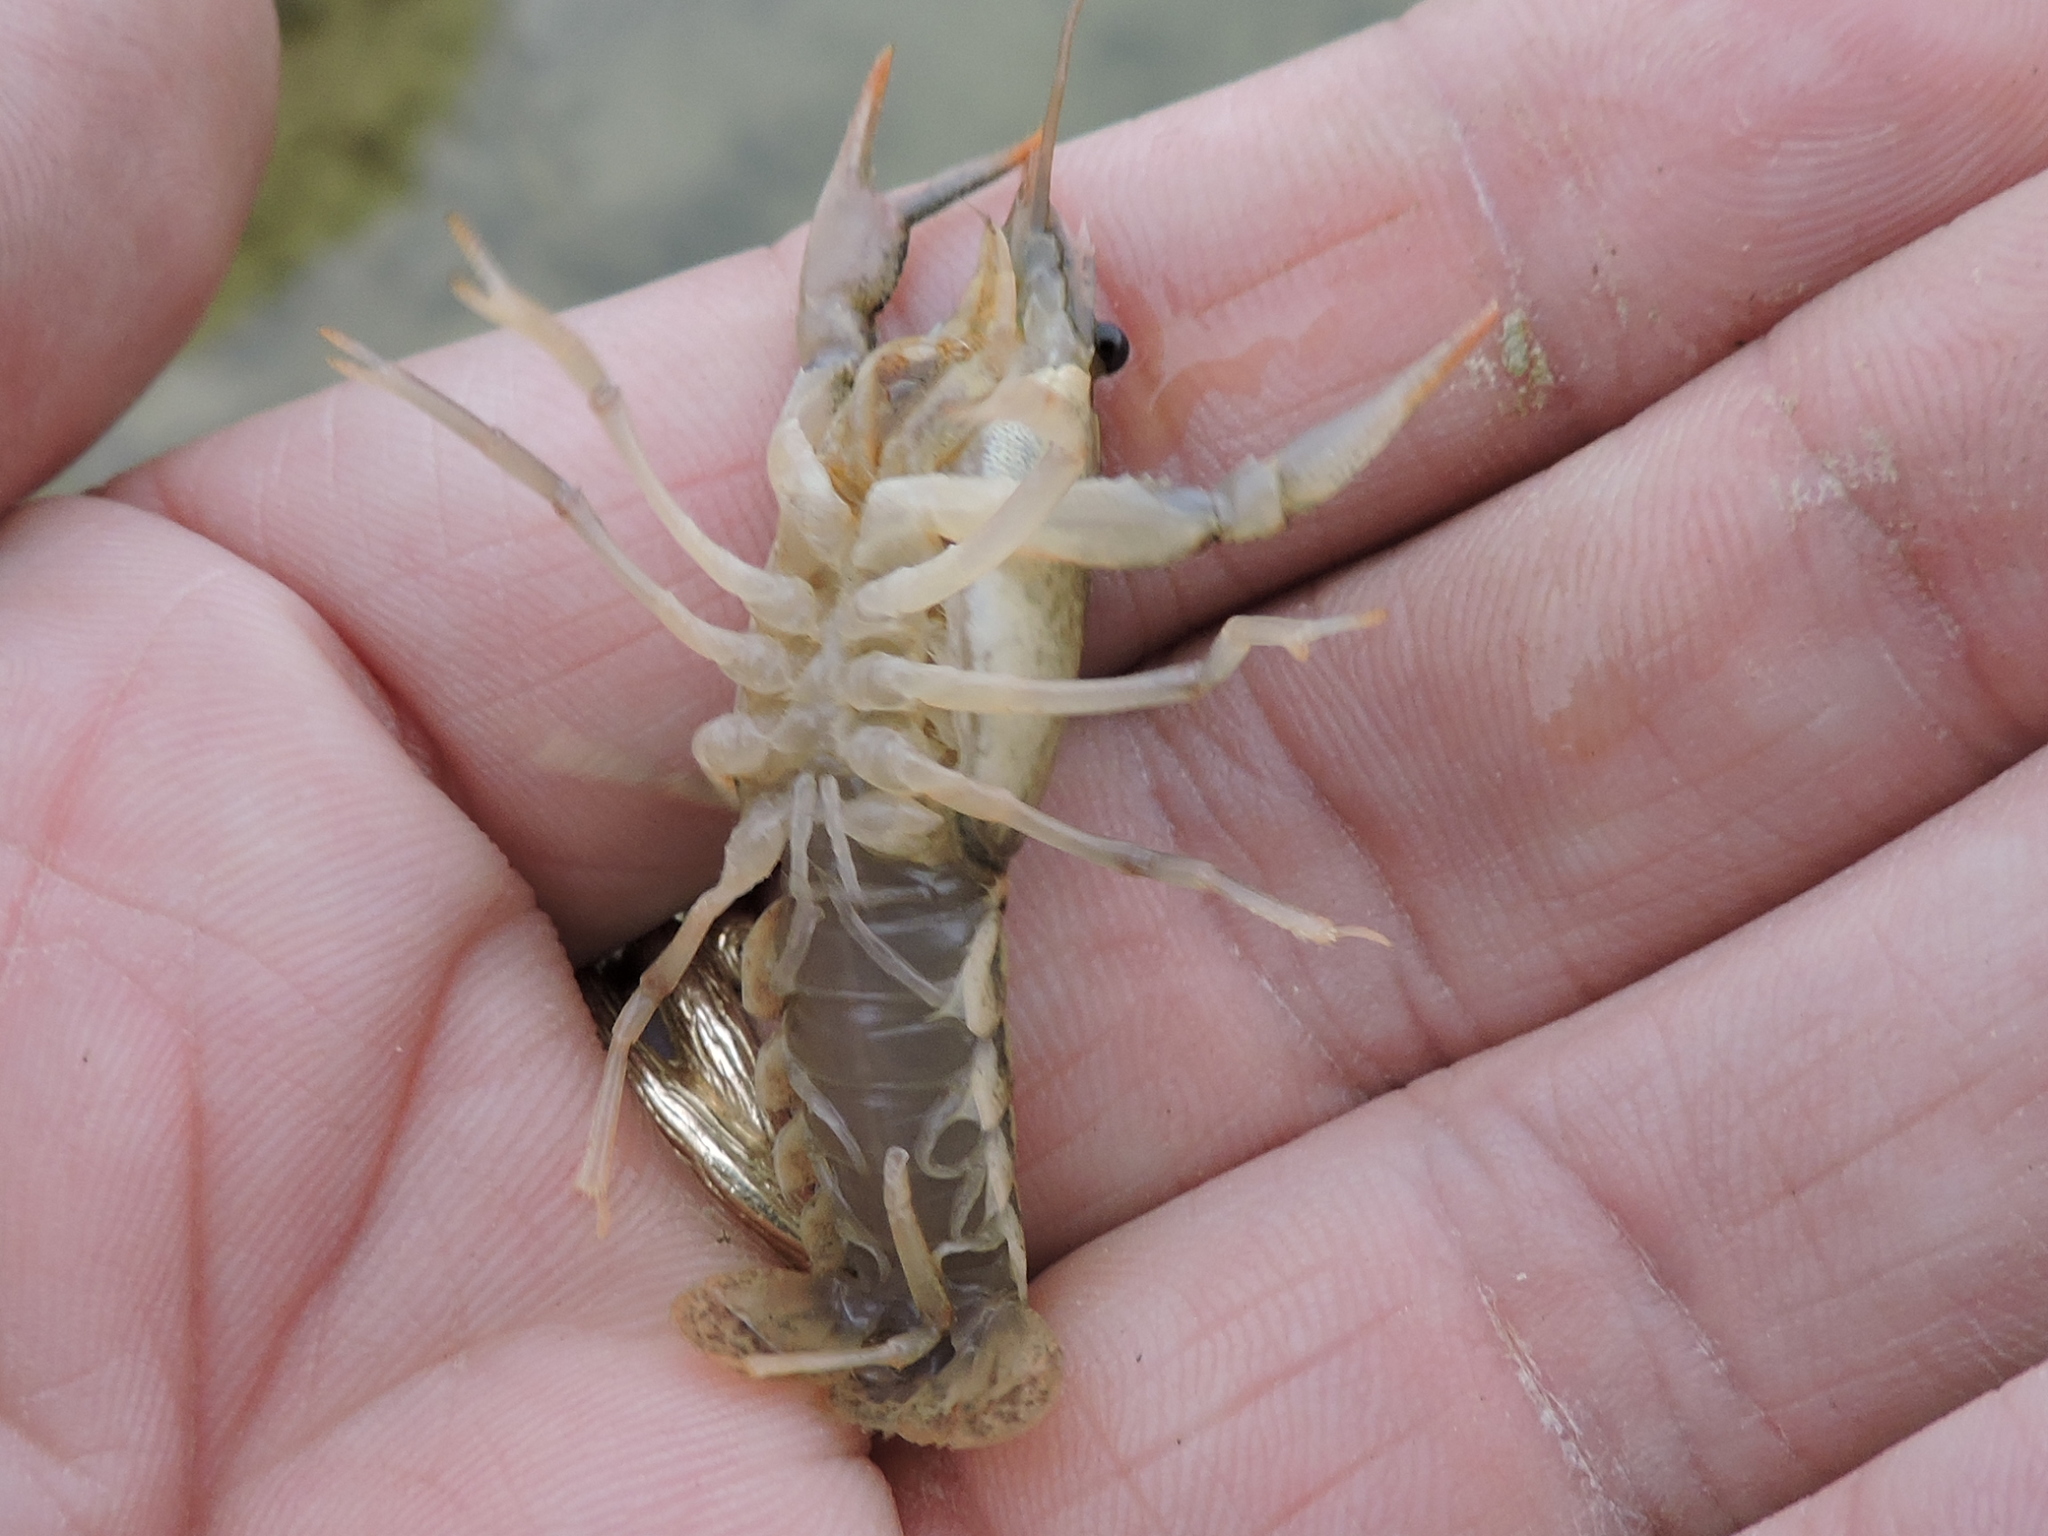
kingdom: Animalia
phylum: Arthropoda
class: Malacostraca
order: Decapoda
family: Cambaridae
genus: Procambarus
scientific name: Procambarus simulans
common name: Southern plains crayfish
